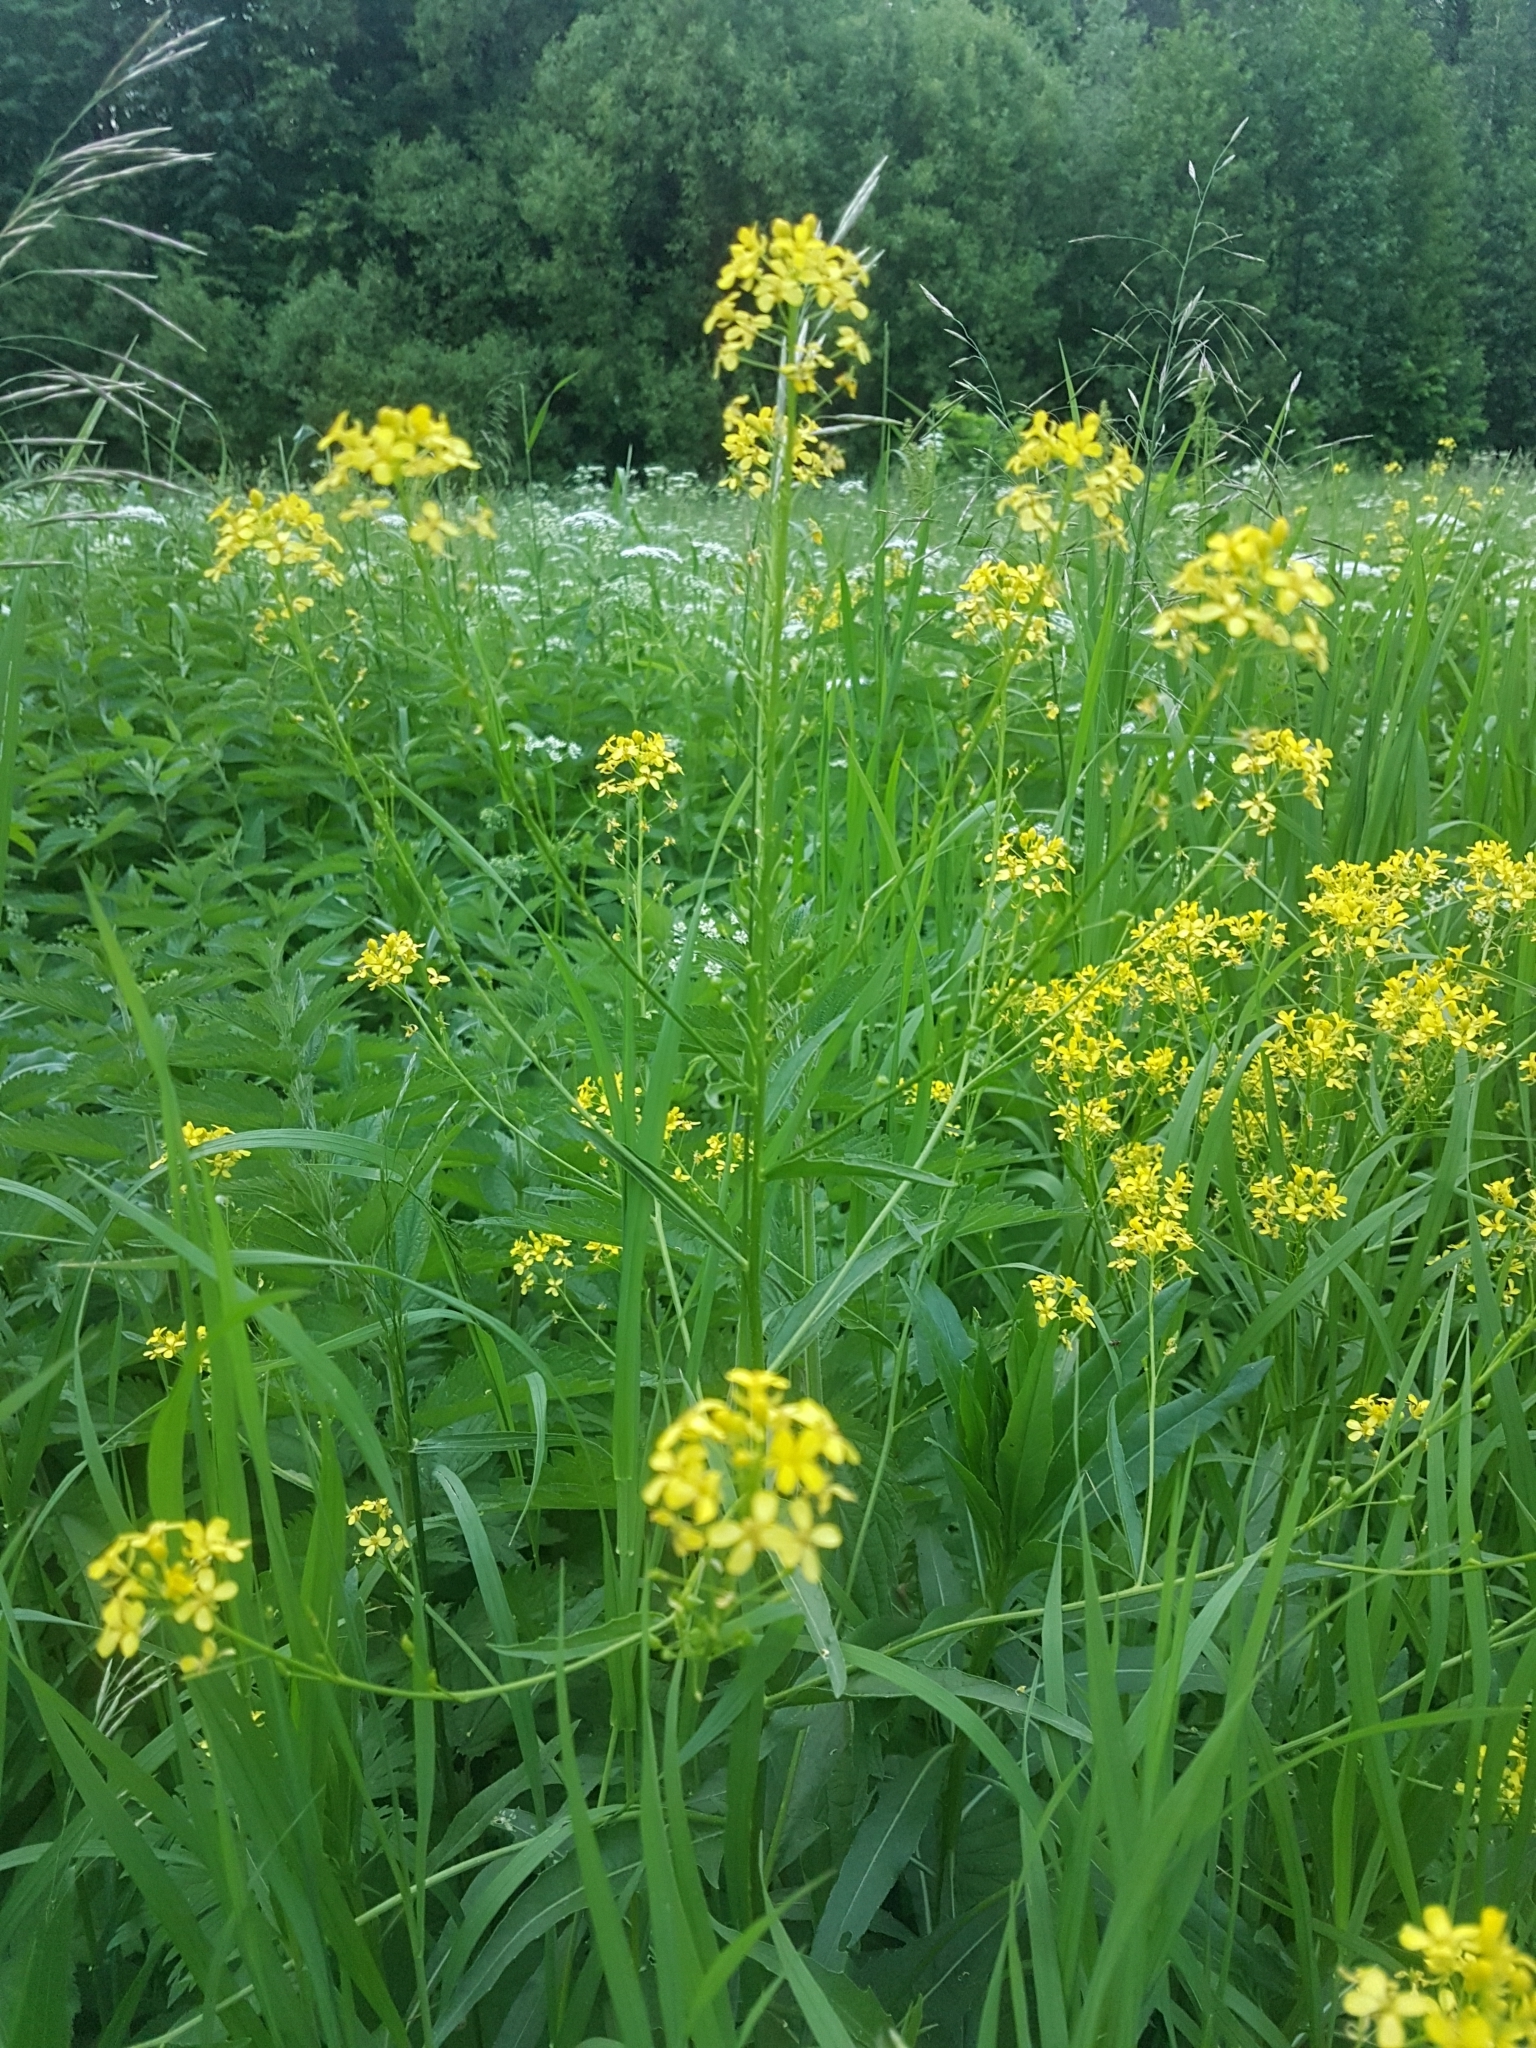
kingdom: Plantae
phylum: Tracheophyta
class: Magnoliopsida
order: Brassicales
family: Brassicaceae
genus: Bunias
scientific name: Bunias orientalis
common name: Warty-cabbage
